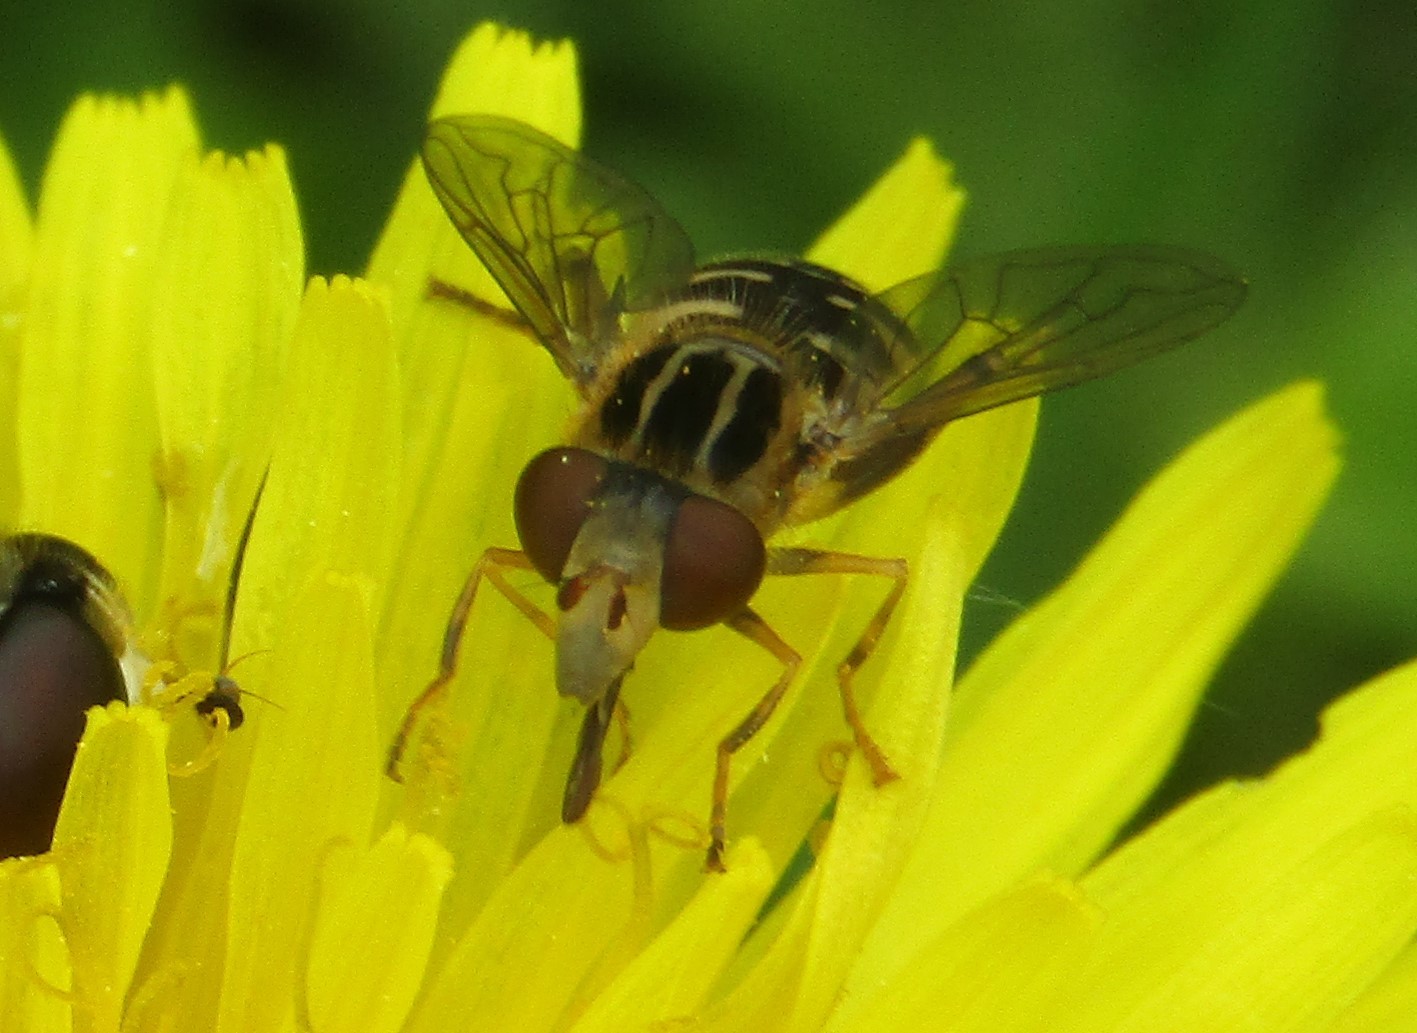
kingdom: Animalia
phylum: Arthropoda
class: Insecta
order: Diptera
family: Syrphidae
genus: Eurimyia
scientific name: Eurimyia lineatus
